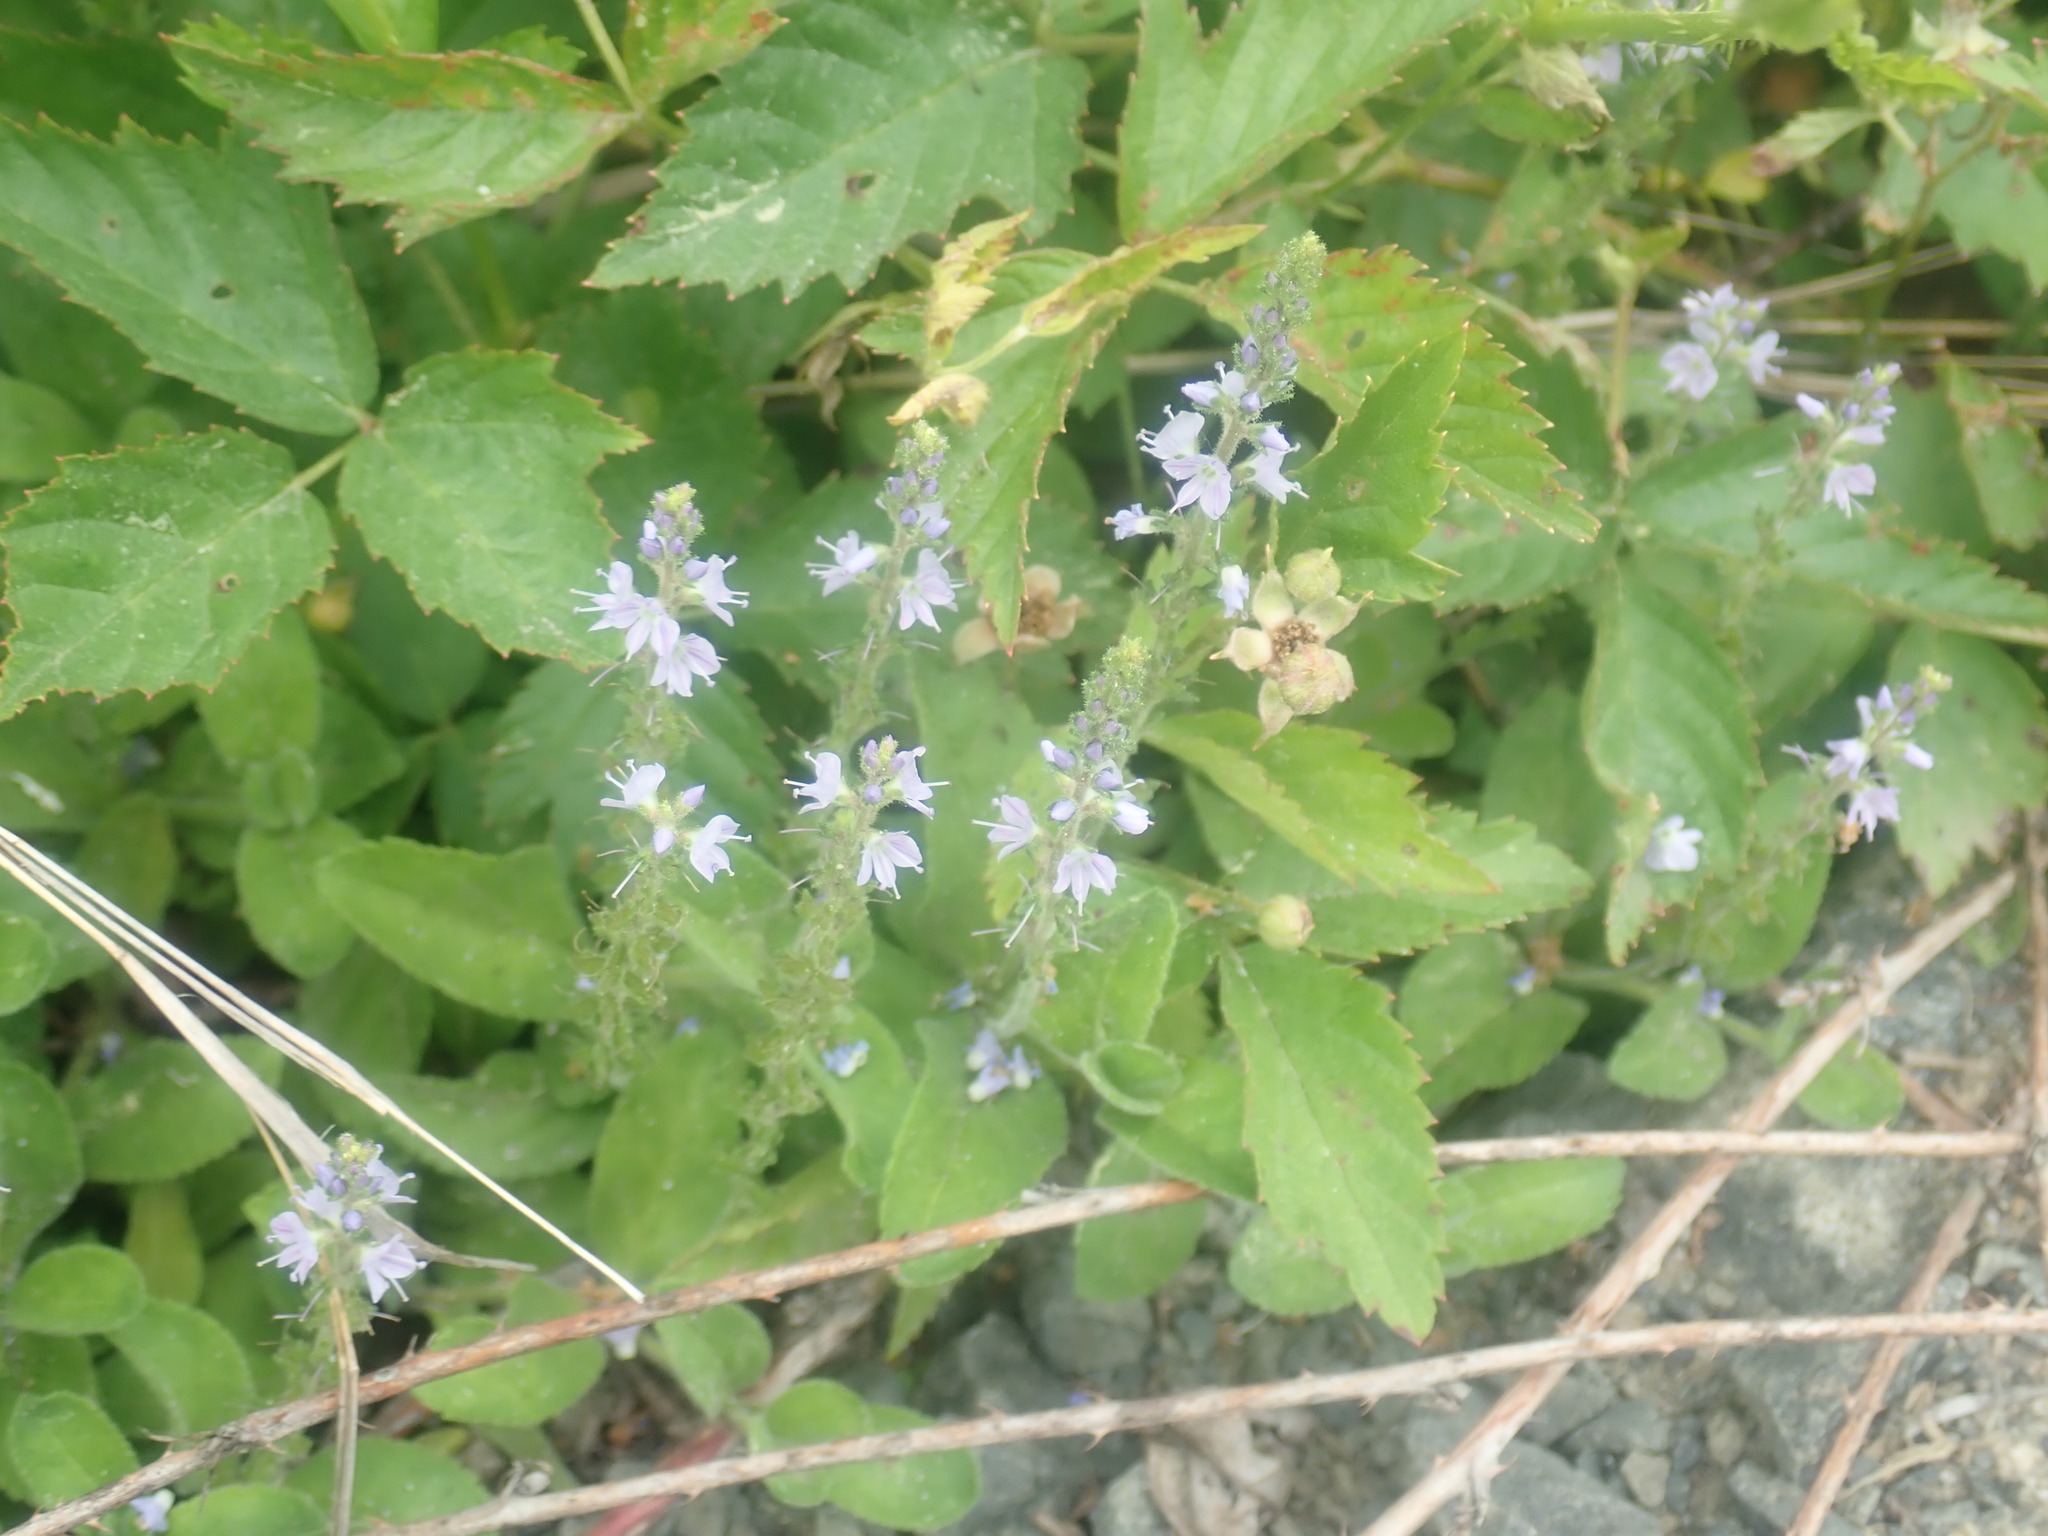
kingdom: Plantae
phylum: Tracheophyta
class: Magnoliopsida
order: Lamiales
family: Plantaginaceae
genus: Veronica
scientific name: Veronica officinalis
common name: Common speedwell
